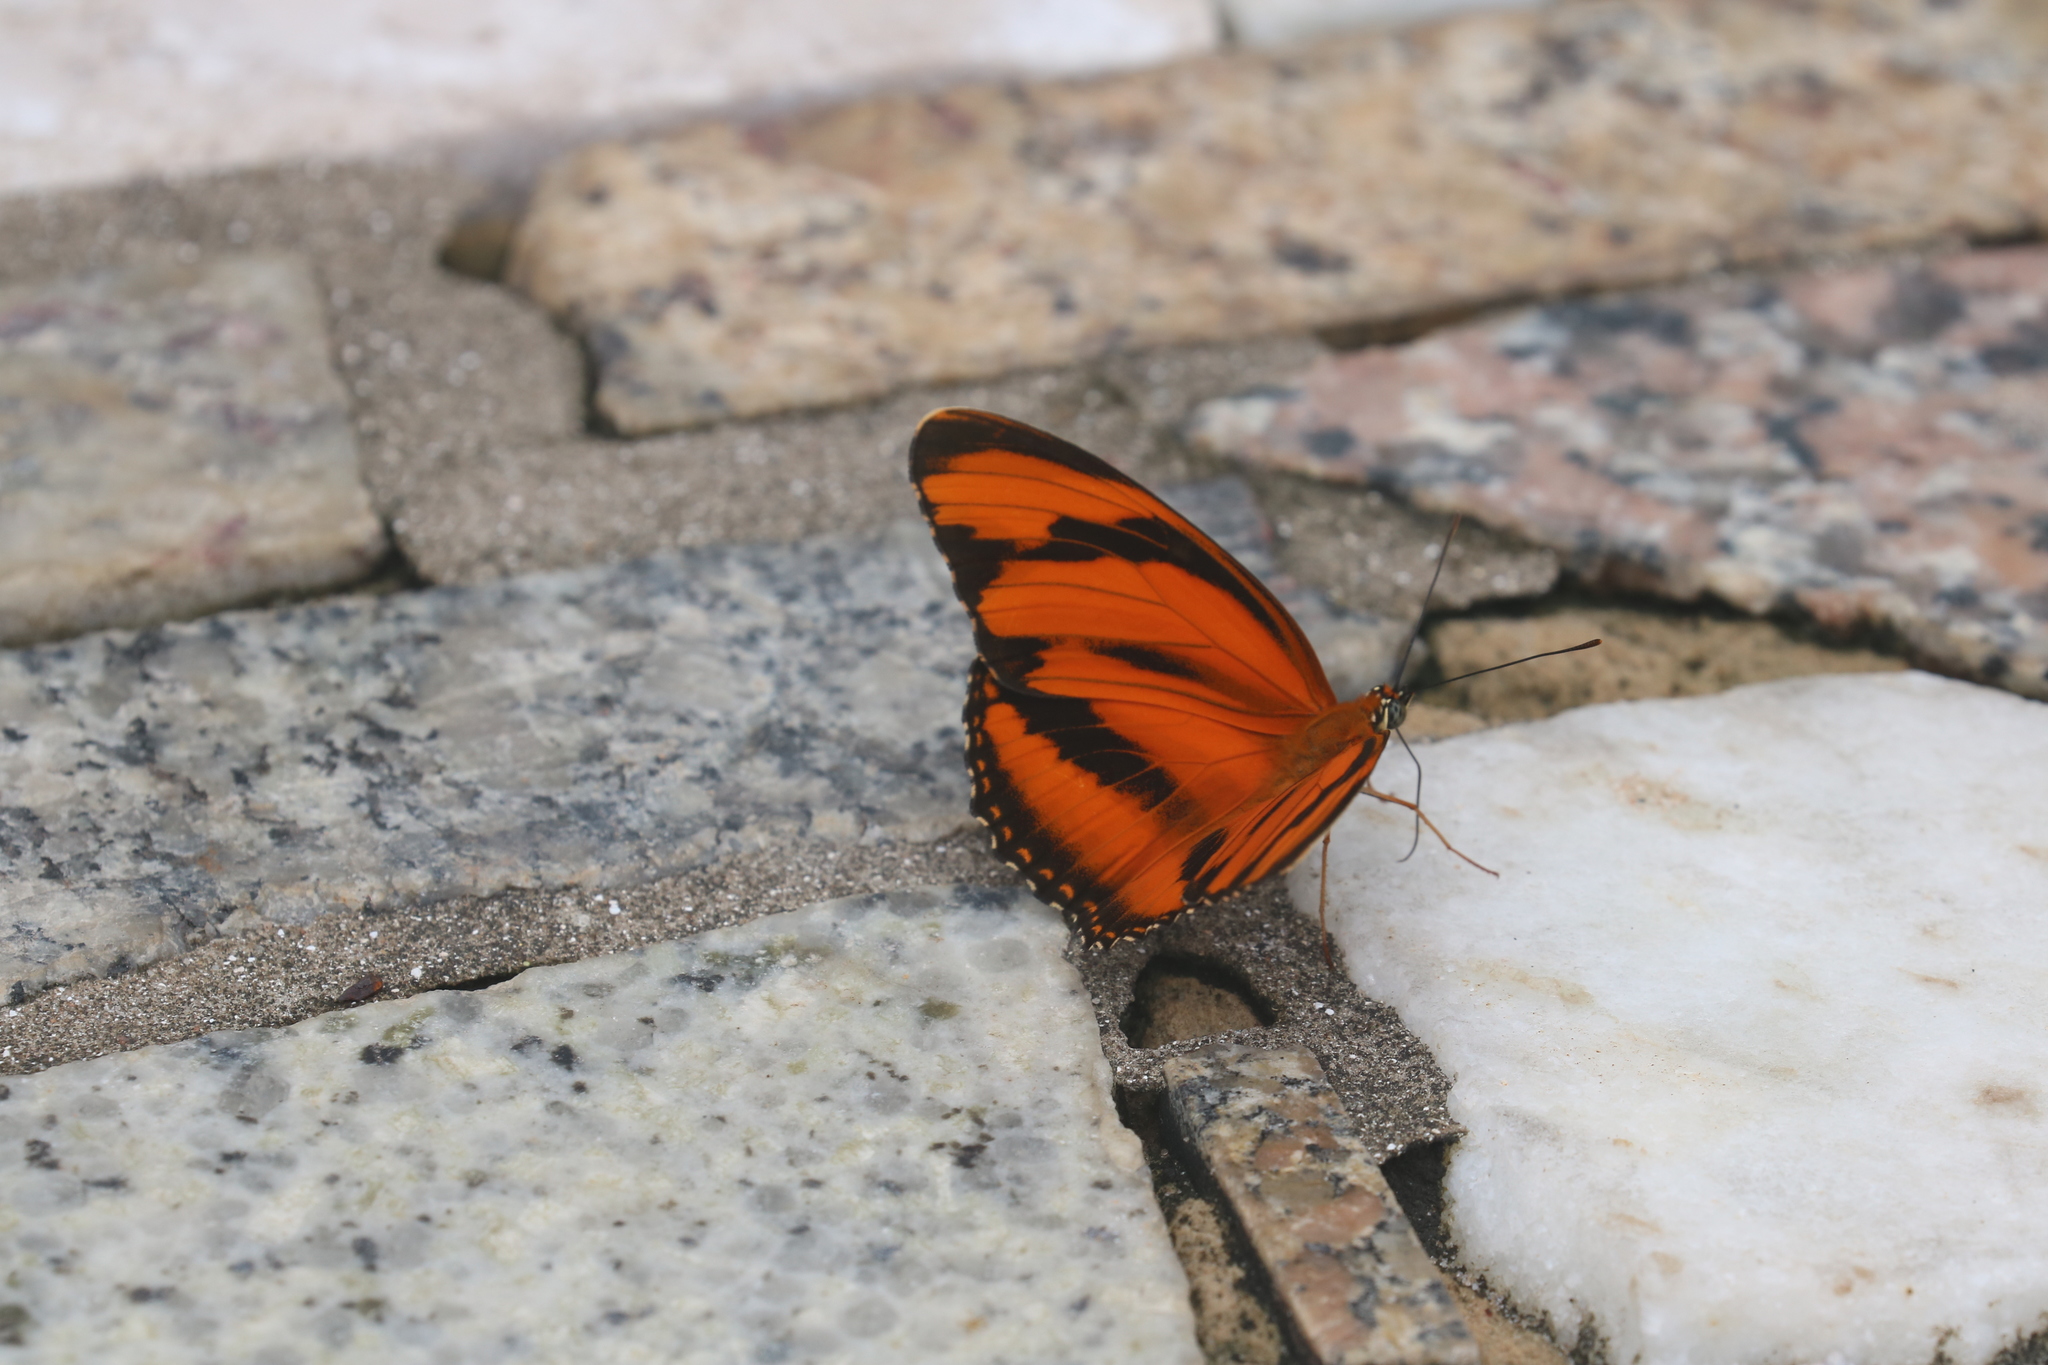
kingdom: Animalia
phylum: Arthropoda
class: Insecta
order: Lepidoptera
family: Nymphalidae
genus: Dryadula
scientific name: Dryadula phaetusa
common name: Banded orange heliconian
